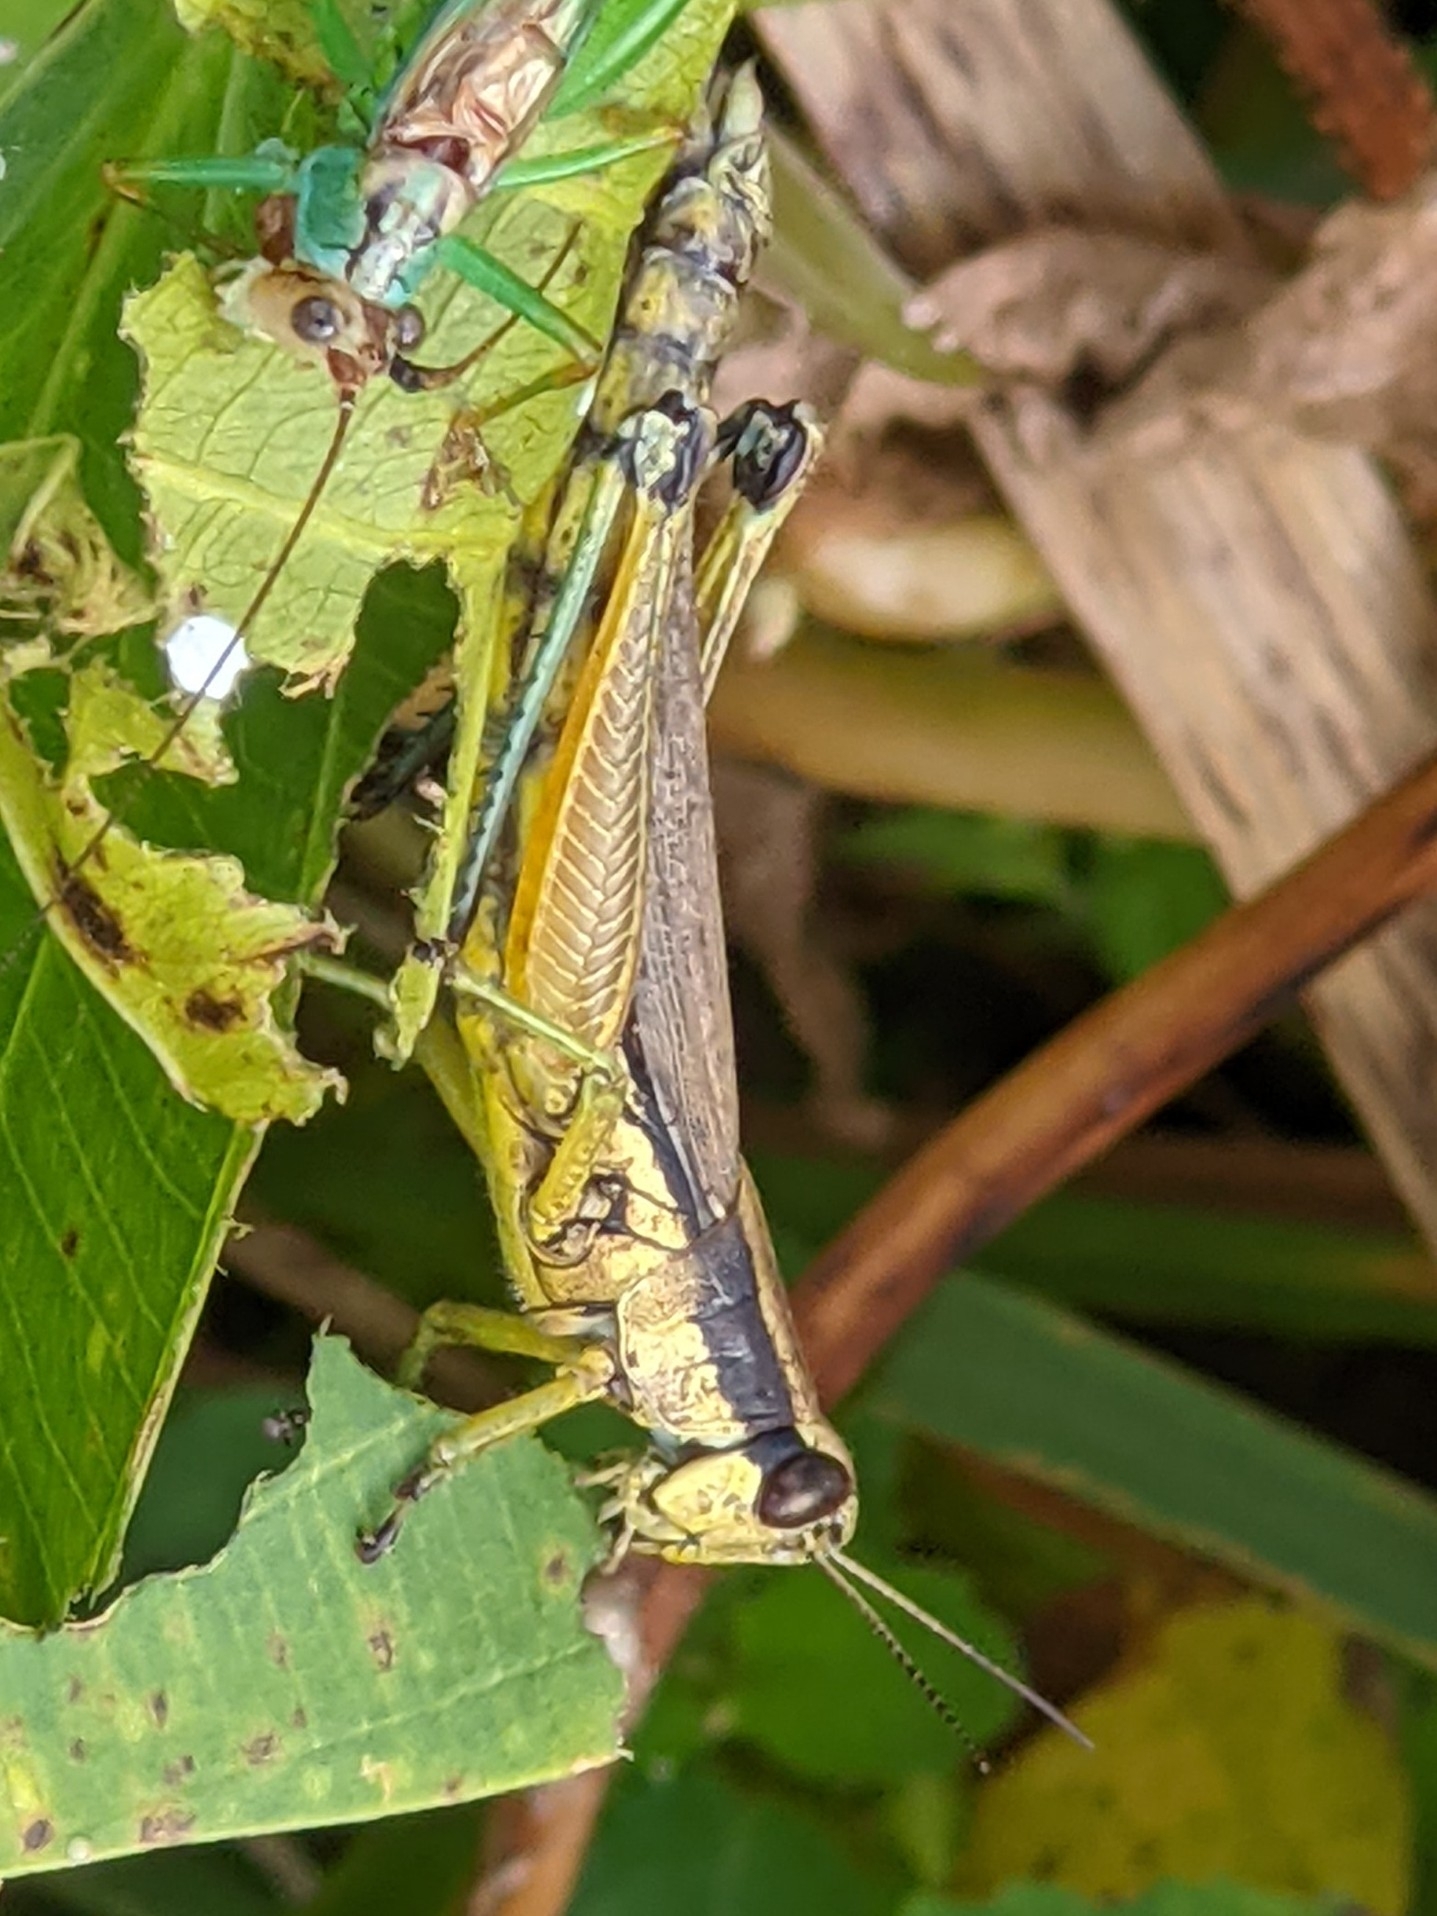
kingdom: Animalia
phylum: Arthropoda
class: Insecta
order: Orthoptera
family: Acrididae
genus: Paroxya
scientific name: Paroxya clavuligera
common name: Olive-green swamp grasshopper
